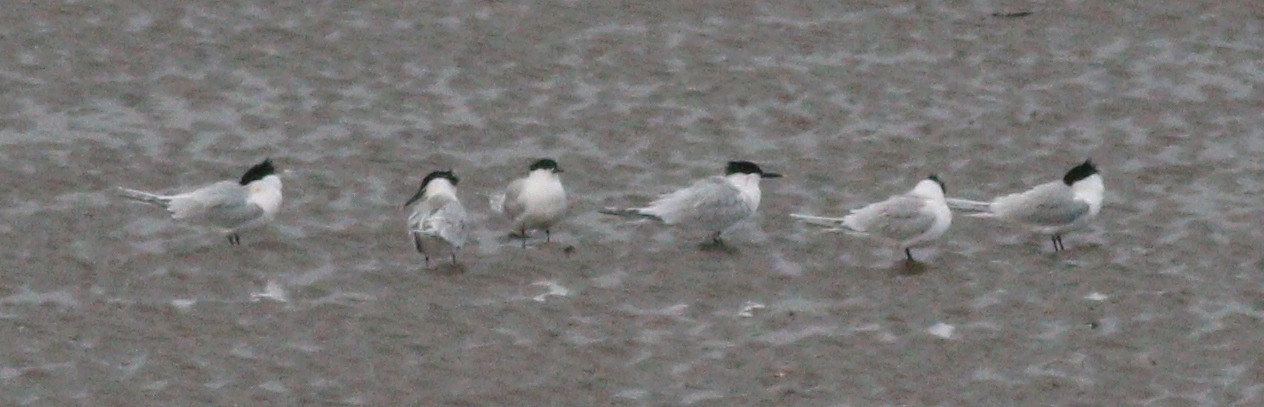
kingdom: Animalia
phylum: Chordata
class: Aves
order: Charadriiformes
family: Laridae
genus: Thalasseus
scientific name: Thalasseus sandvicensis
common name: Sandwich tern
